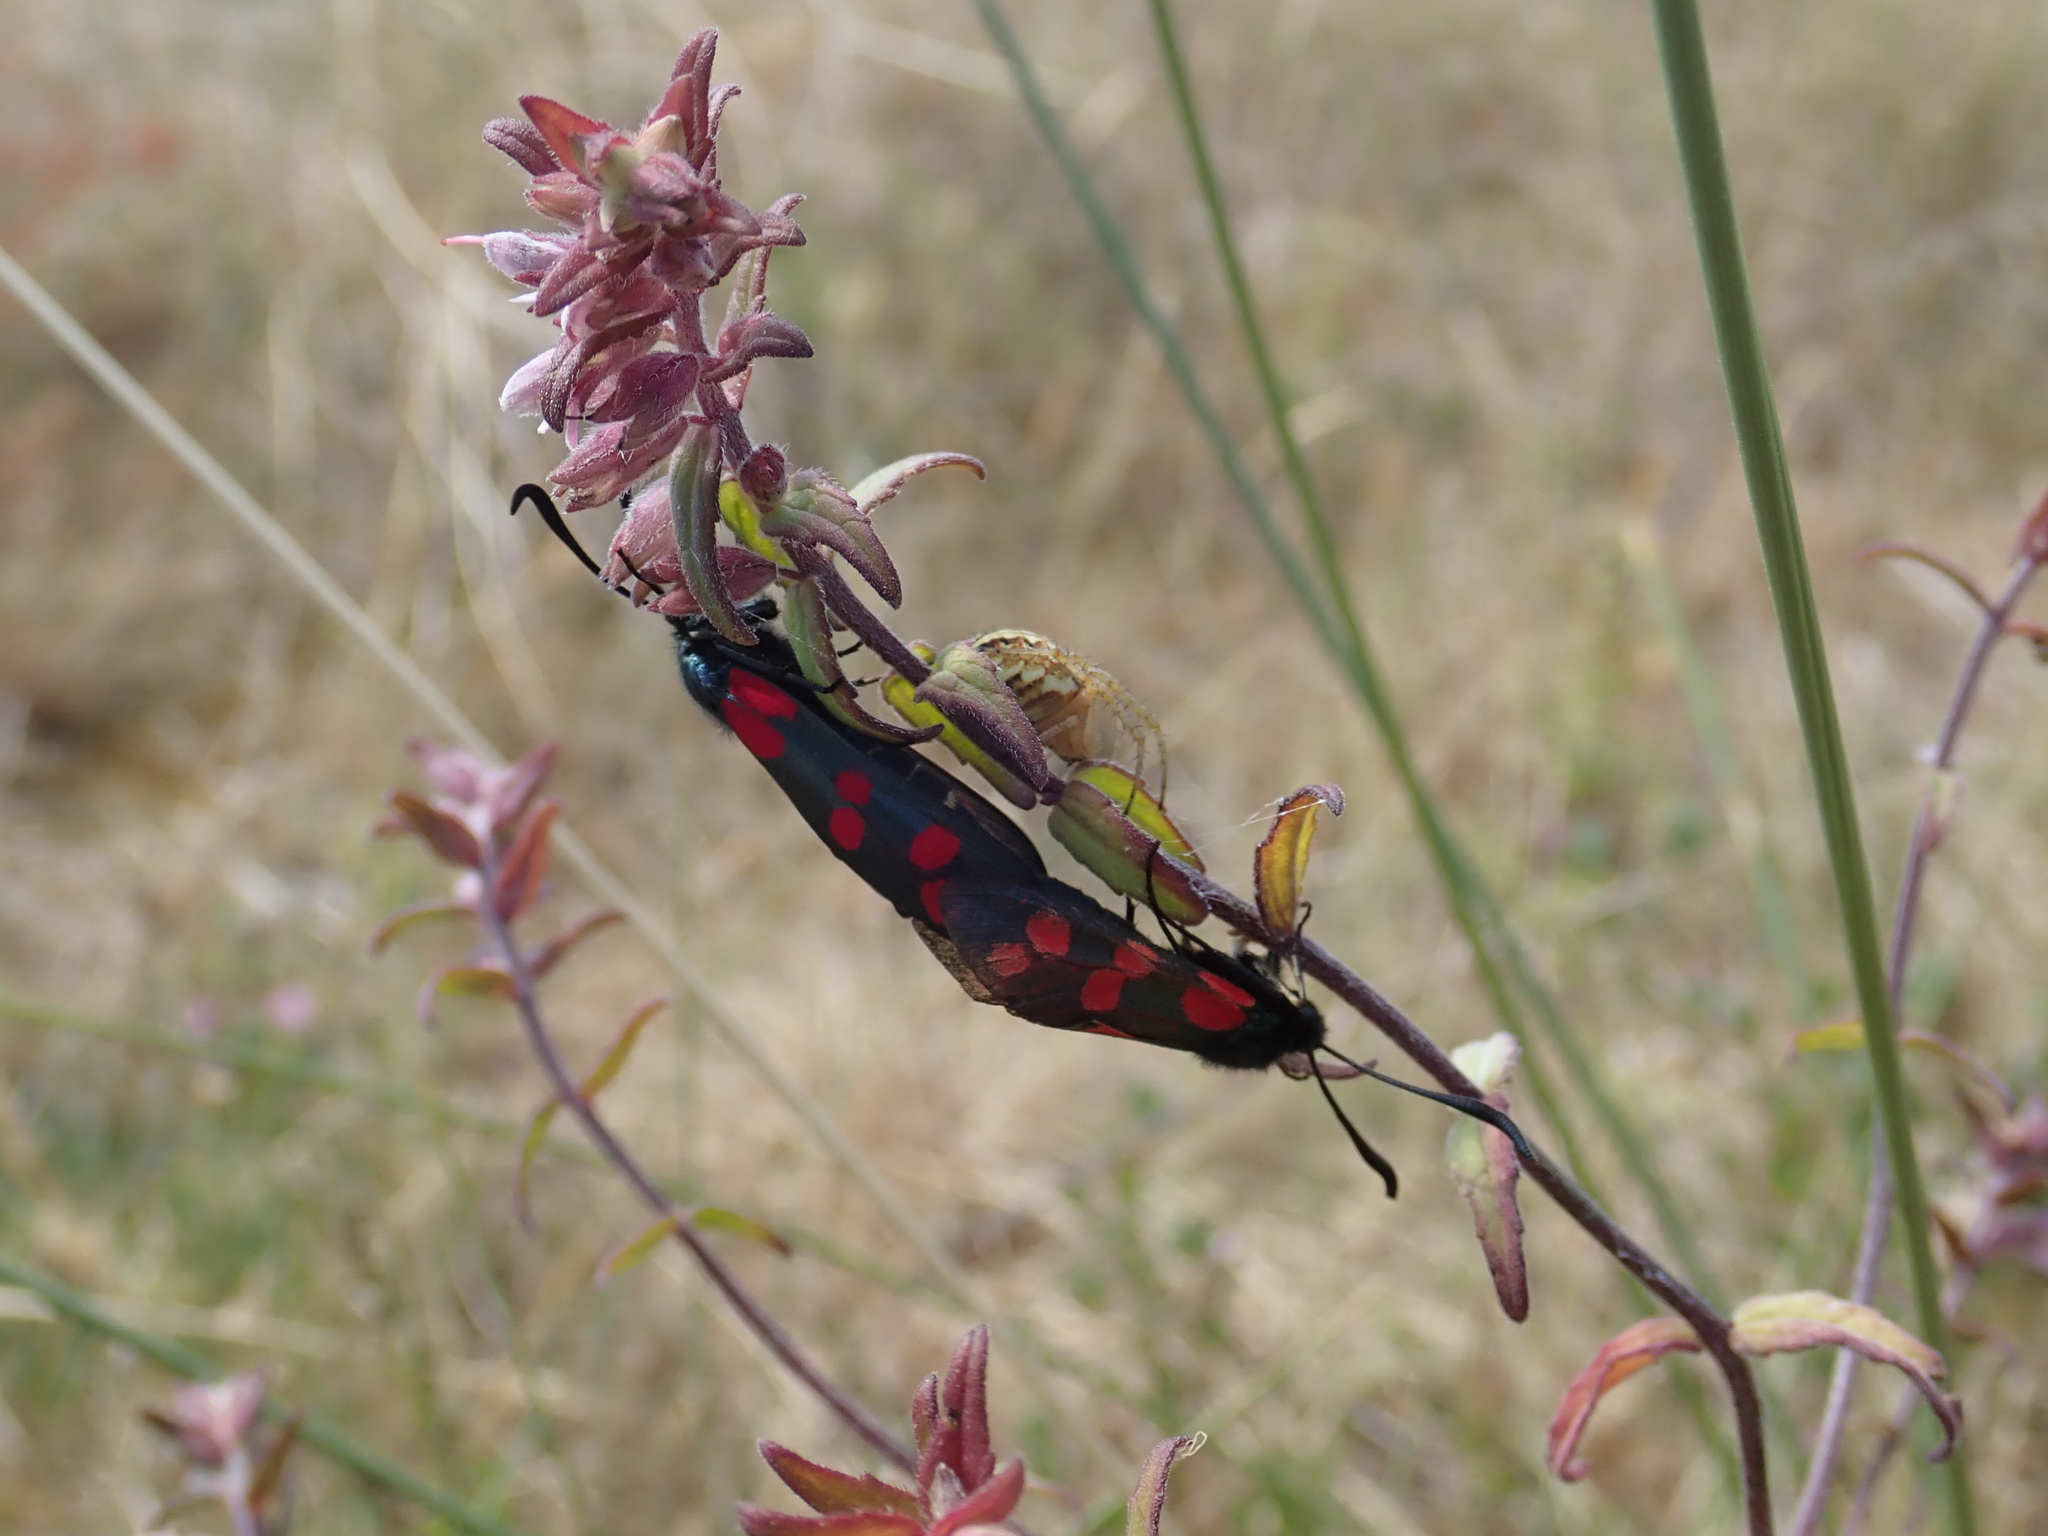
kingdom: Animalia
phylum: Arthropoda
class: Insecta
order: Lepidoptera
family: Zygaenidae
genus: Zygaena
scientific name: Zygaena filipendulae
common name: Six-spot burnet
